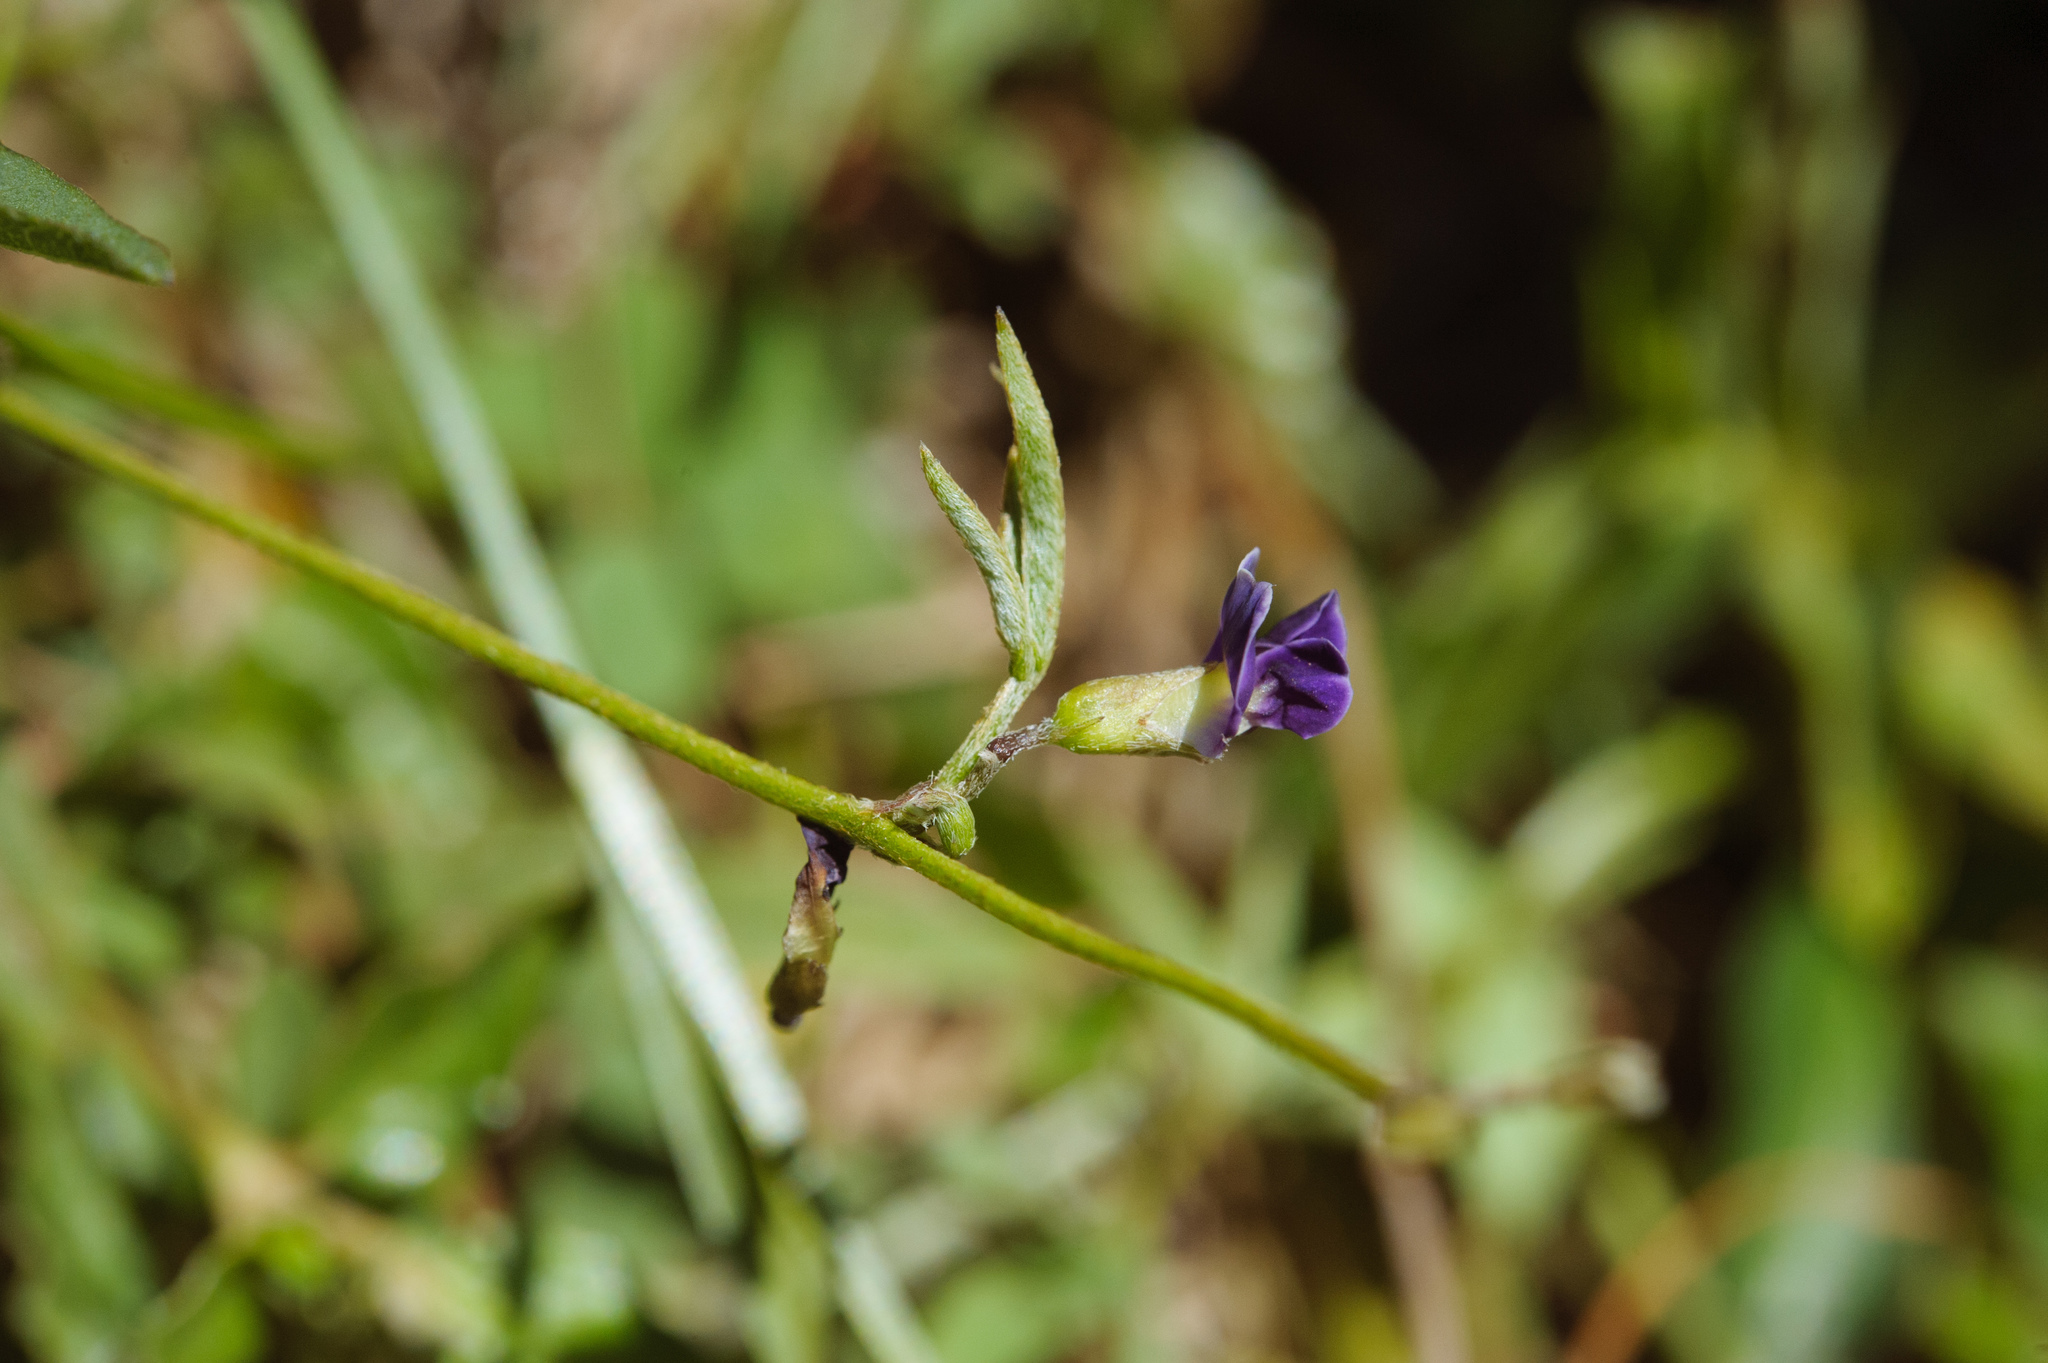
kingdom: Plantae
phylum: Tracheophyta
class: Magnoliopsida
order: Fabales
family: Fabaceae
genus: Glycine
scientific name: Glycine tabacina
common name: Pea glycine
